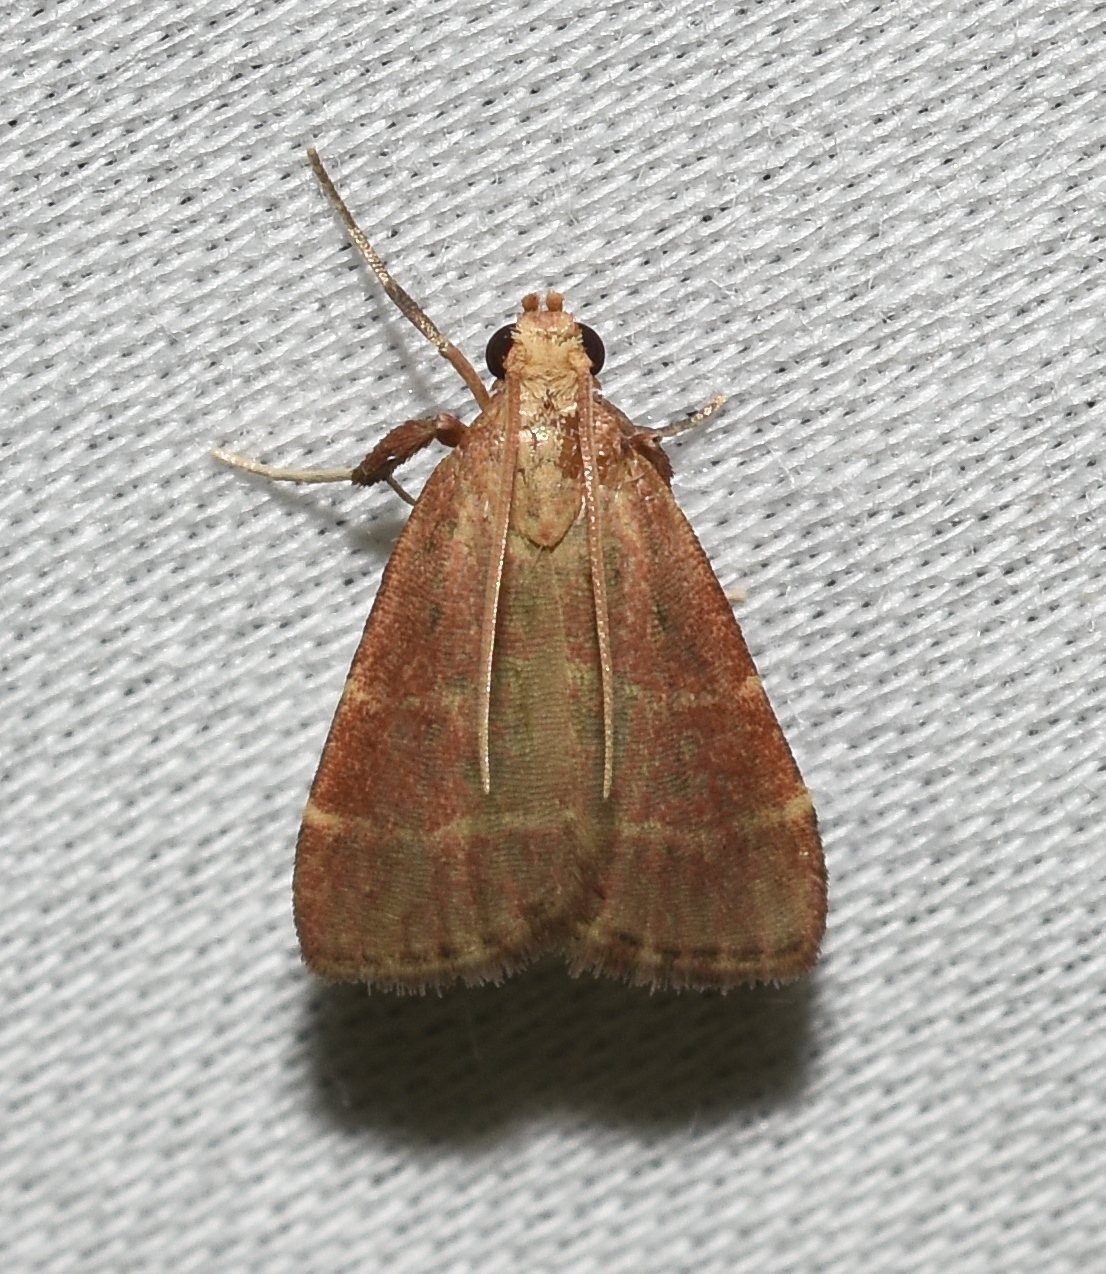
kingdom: Animalia
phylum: Arthropoda
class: Insecta
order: Lepidoptera
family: Pyralidae
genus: Arta
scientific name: Arta statalis
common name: Posturing arta moth
